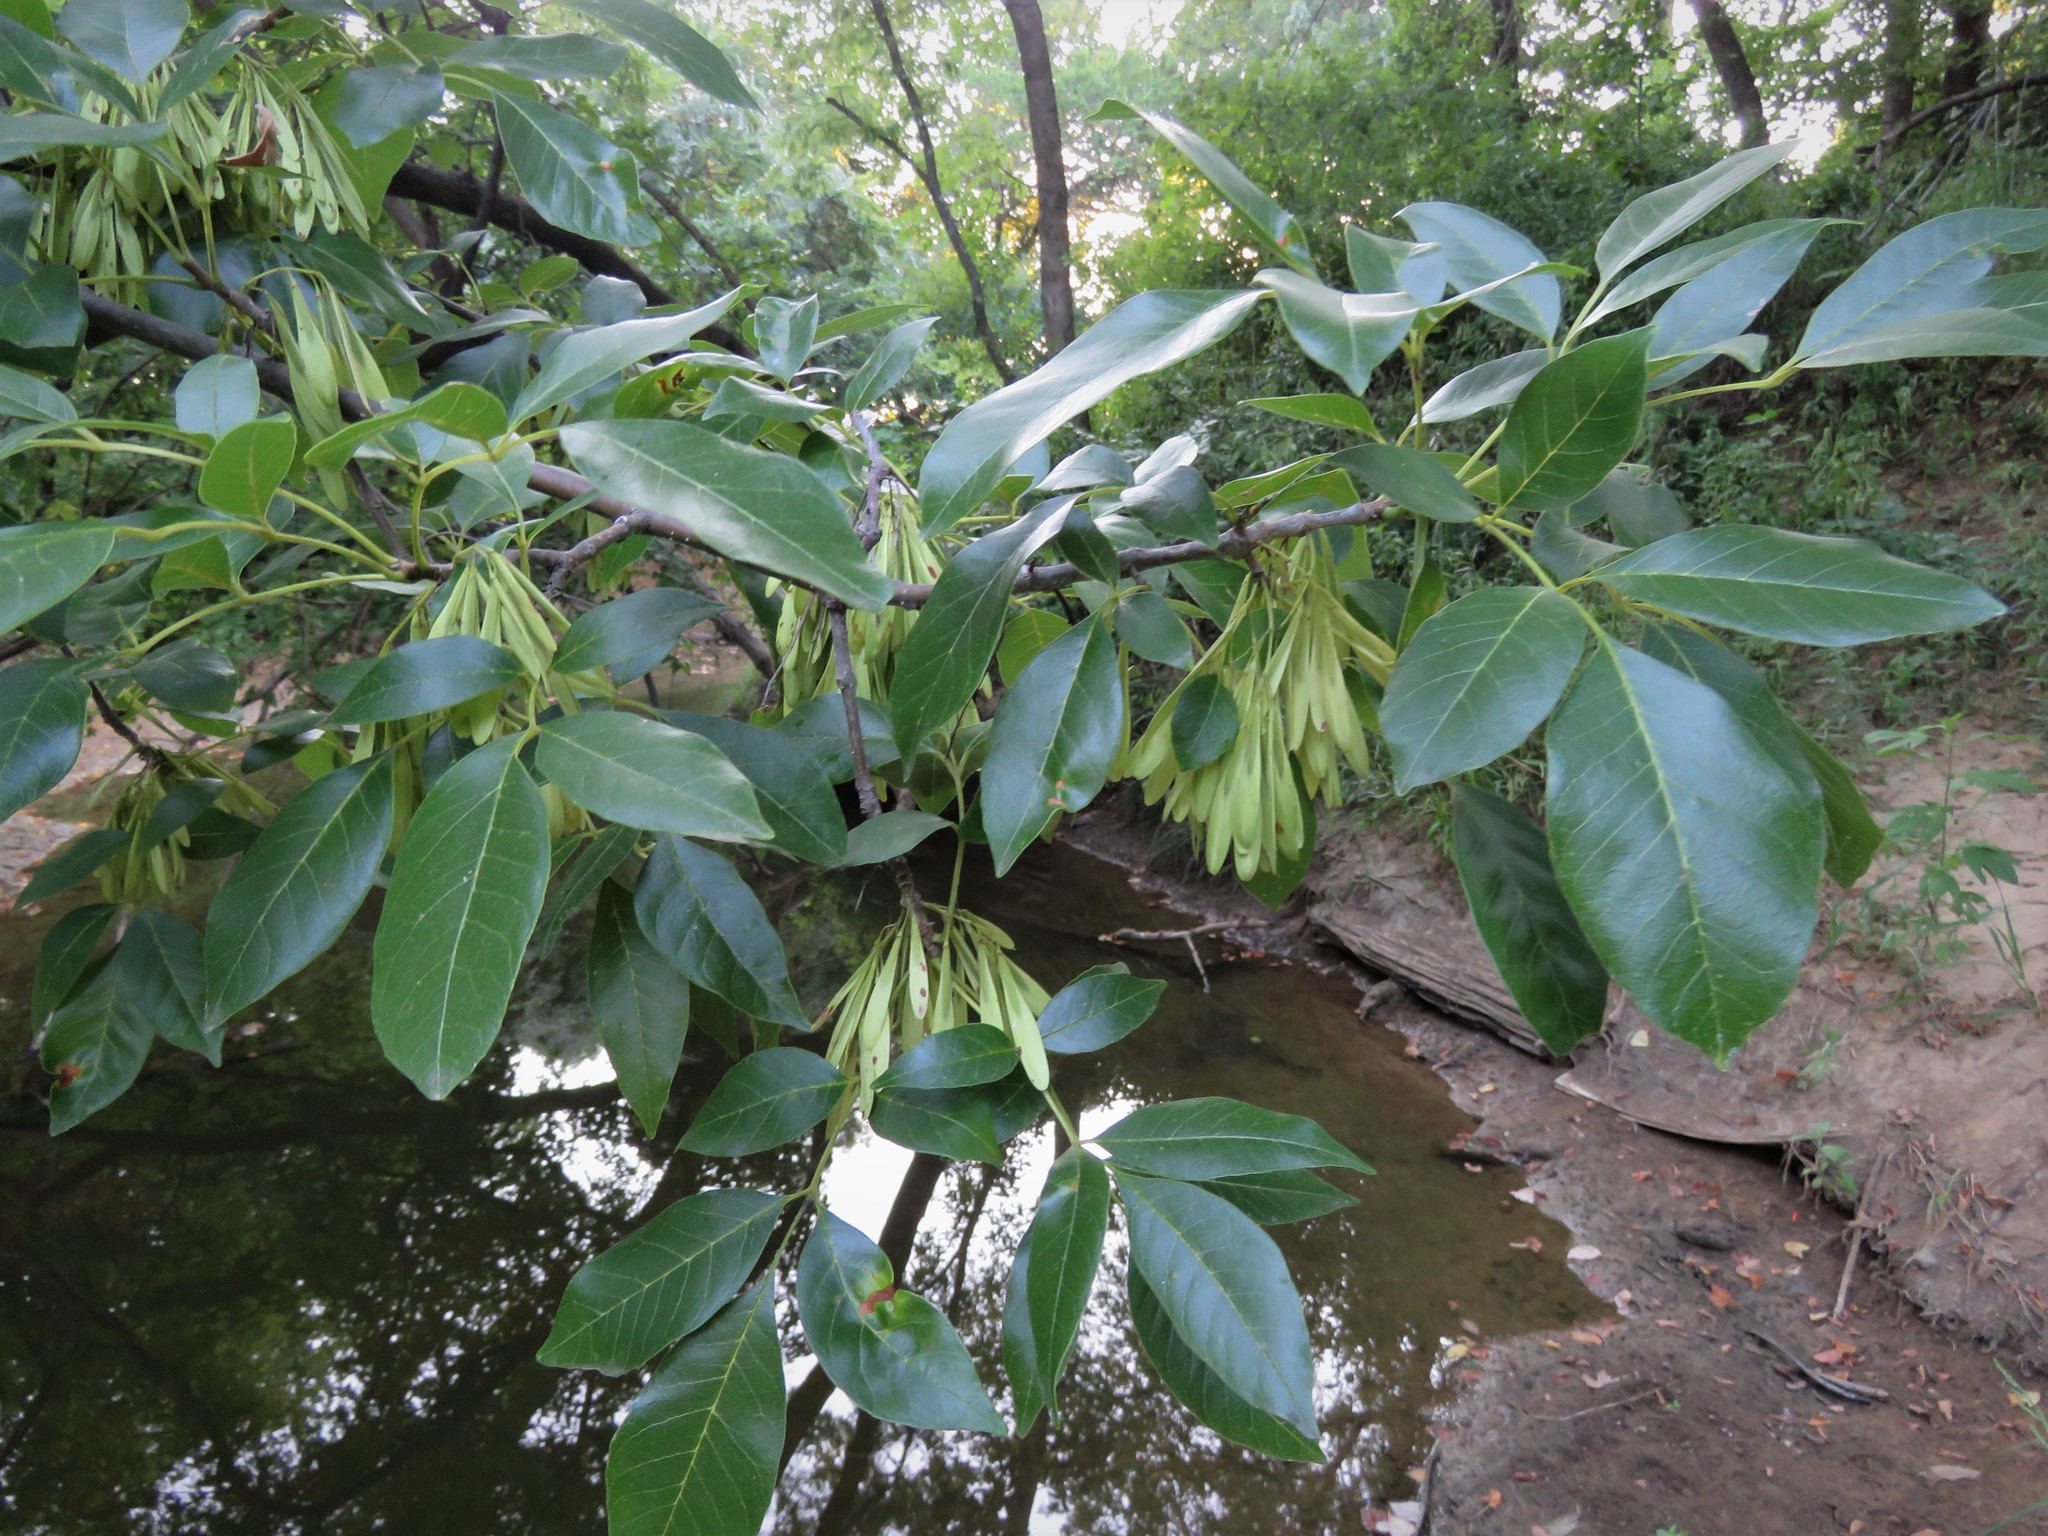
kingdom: Plantae
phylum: Tracheophyta
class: Magnoliopsida
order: Lamiales
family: Oleaceae
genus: Fraxinus
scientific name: Fraxinus pennsylvanica
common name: Green ash
